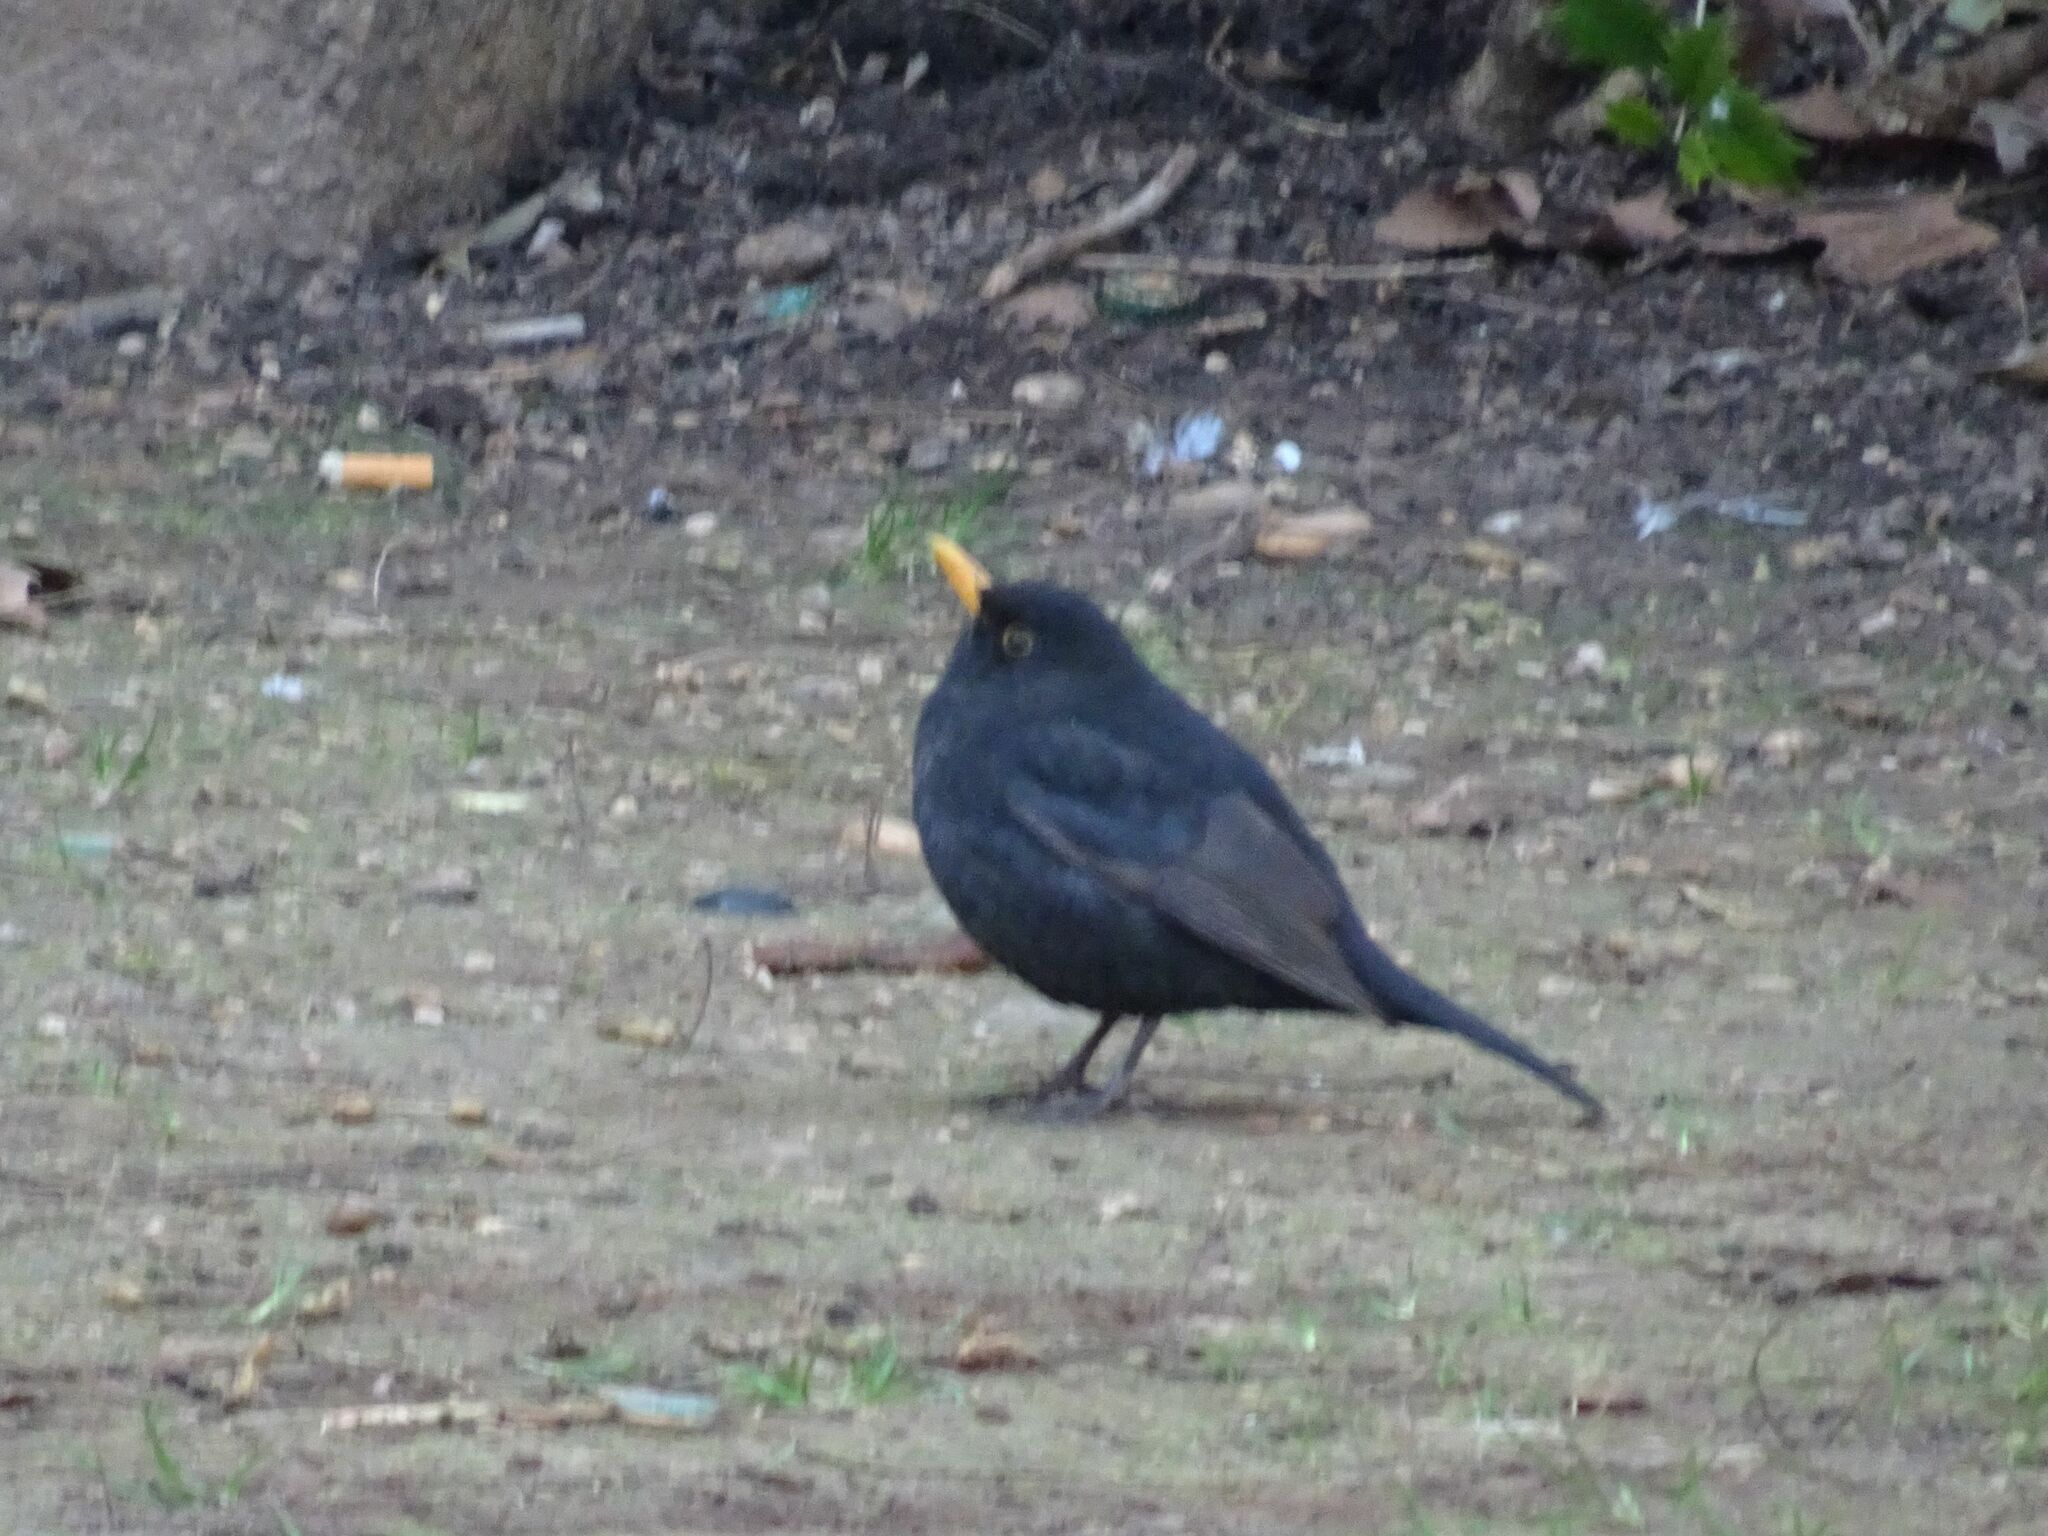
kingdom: Animalia
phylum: Chordata
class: Aves
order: Passeriformes
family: Turdidae
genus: Turdus
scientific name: Turdus merula
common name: Common blackbird
